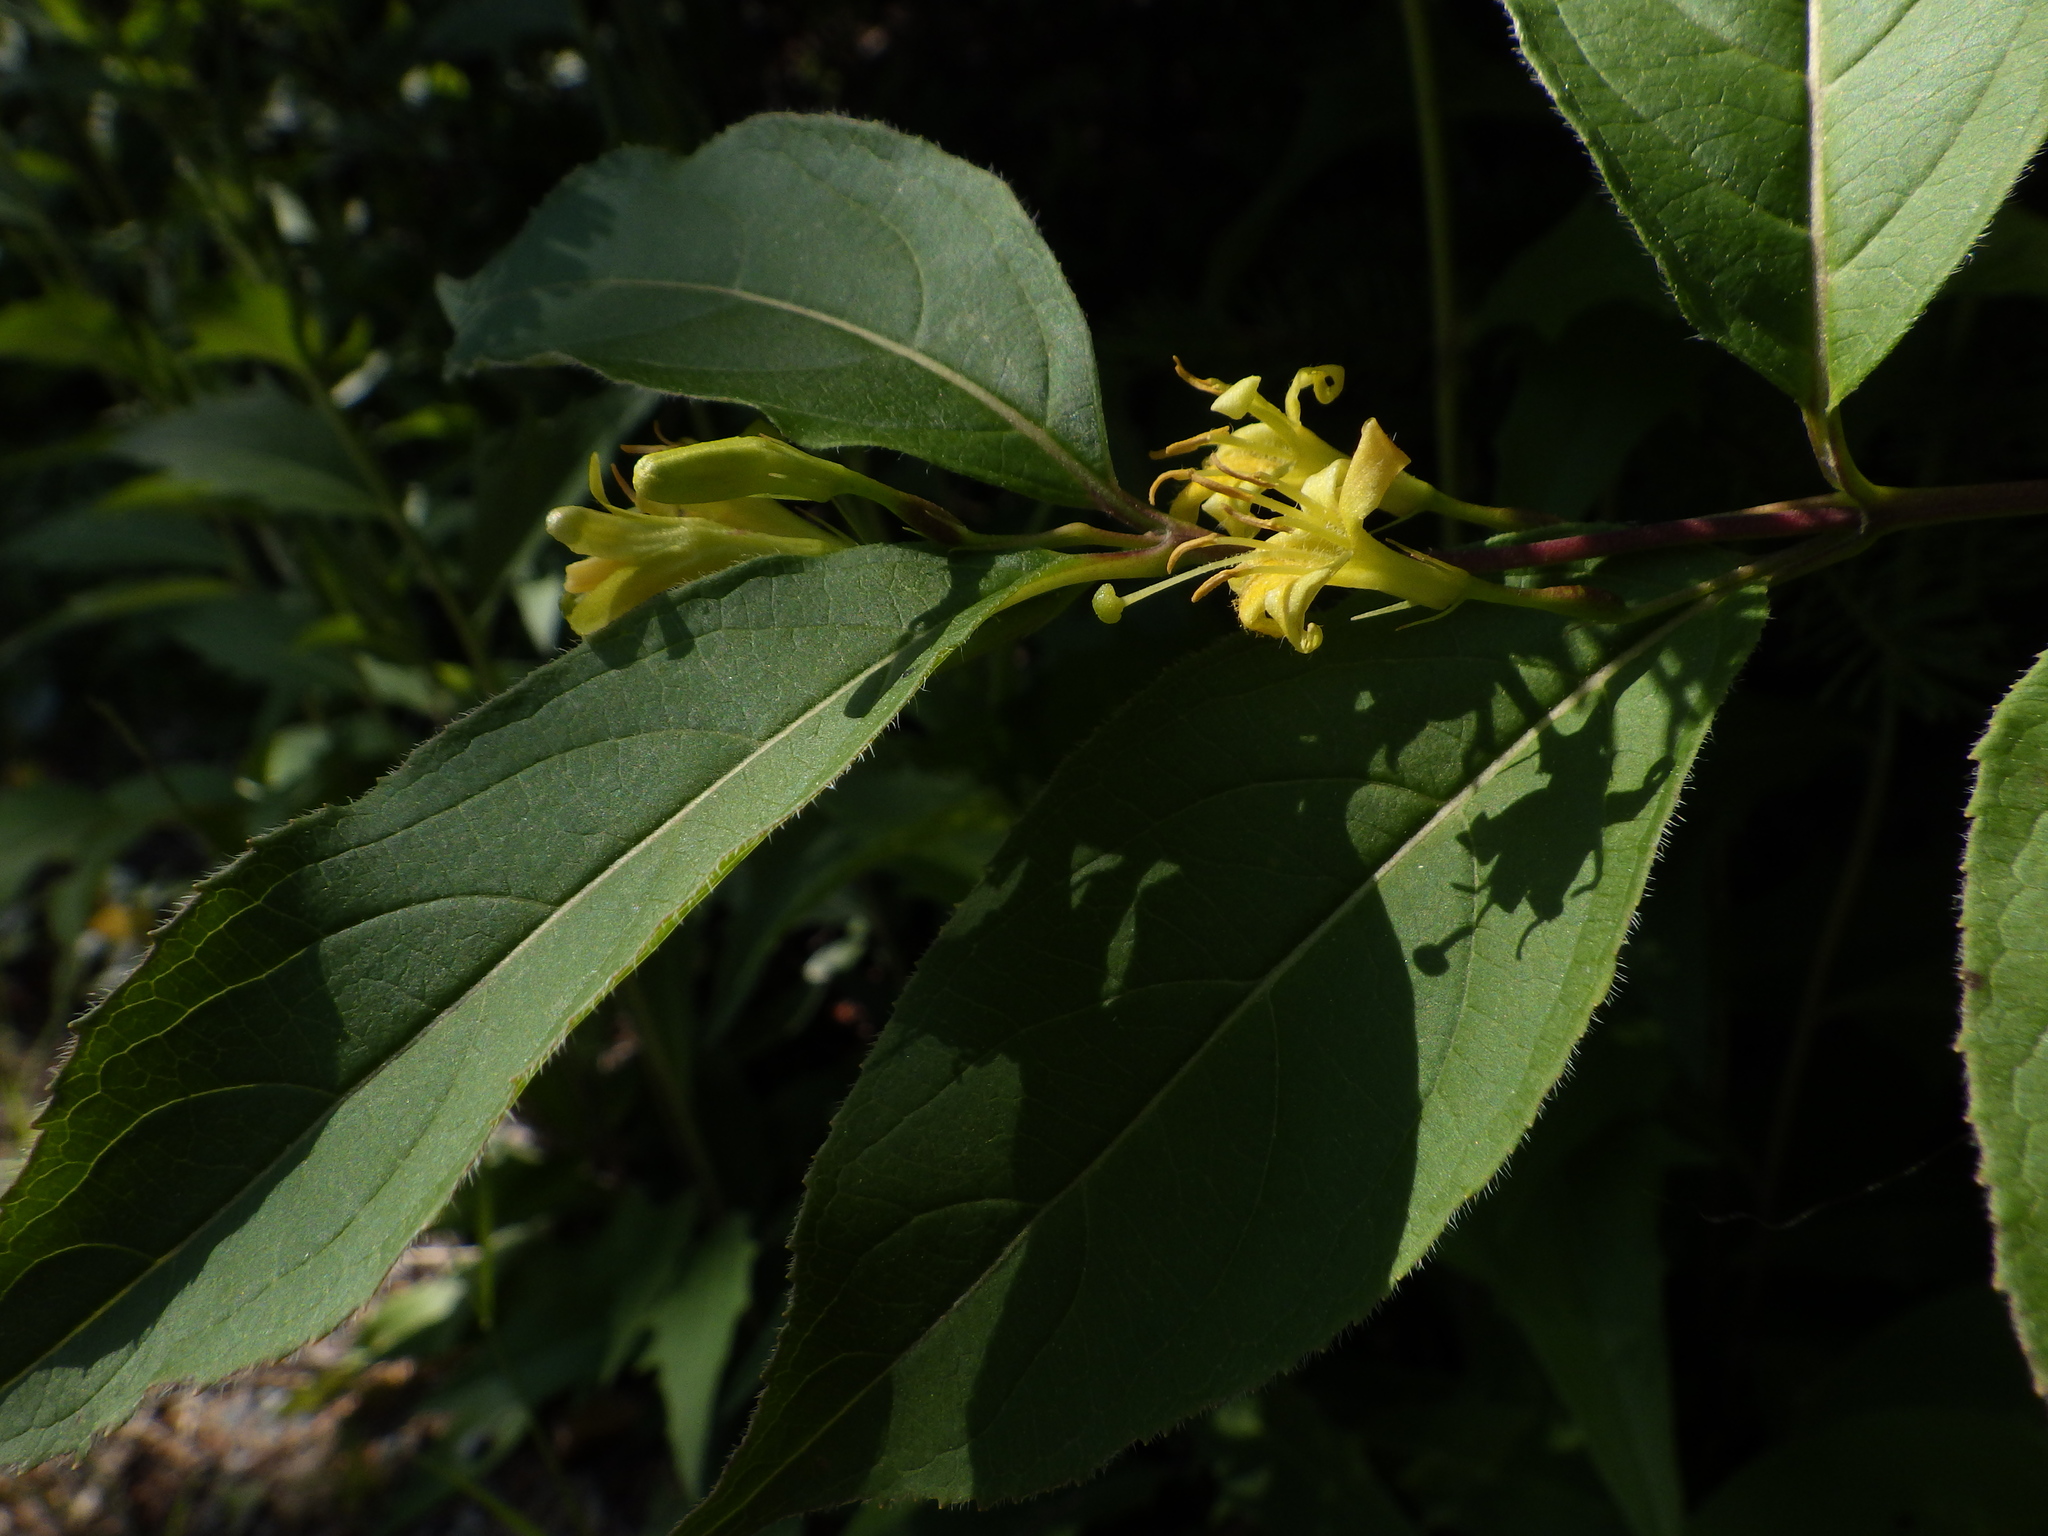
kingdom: Plantae
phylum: Tracheophyta
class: Magnoliopsida
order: Dipsacales
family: Caprifoliaceae
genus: Diervilla
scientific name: Diervilla lonicera
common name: Bush-honeysuckle
